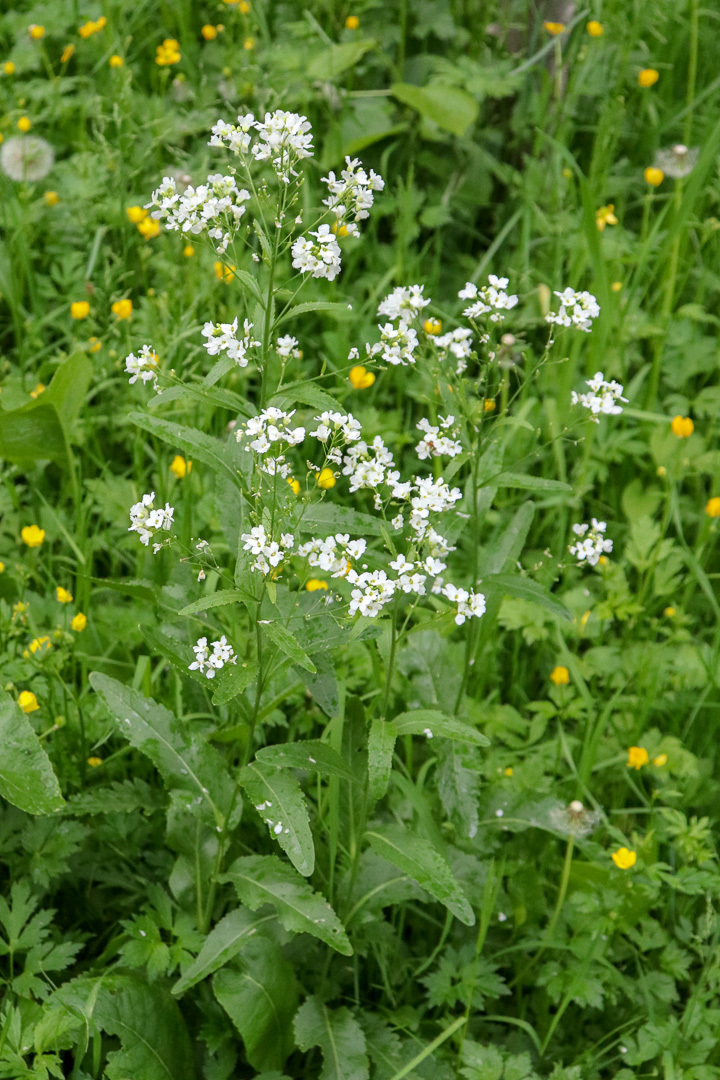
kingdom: Plantae
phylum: Tracheophyta
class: Magnoliopsida
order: Brassicales
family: Brassicaceae
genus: Armoracia
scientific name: Armoracia rusticana
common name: Horseradish
